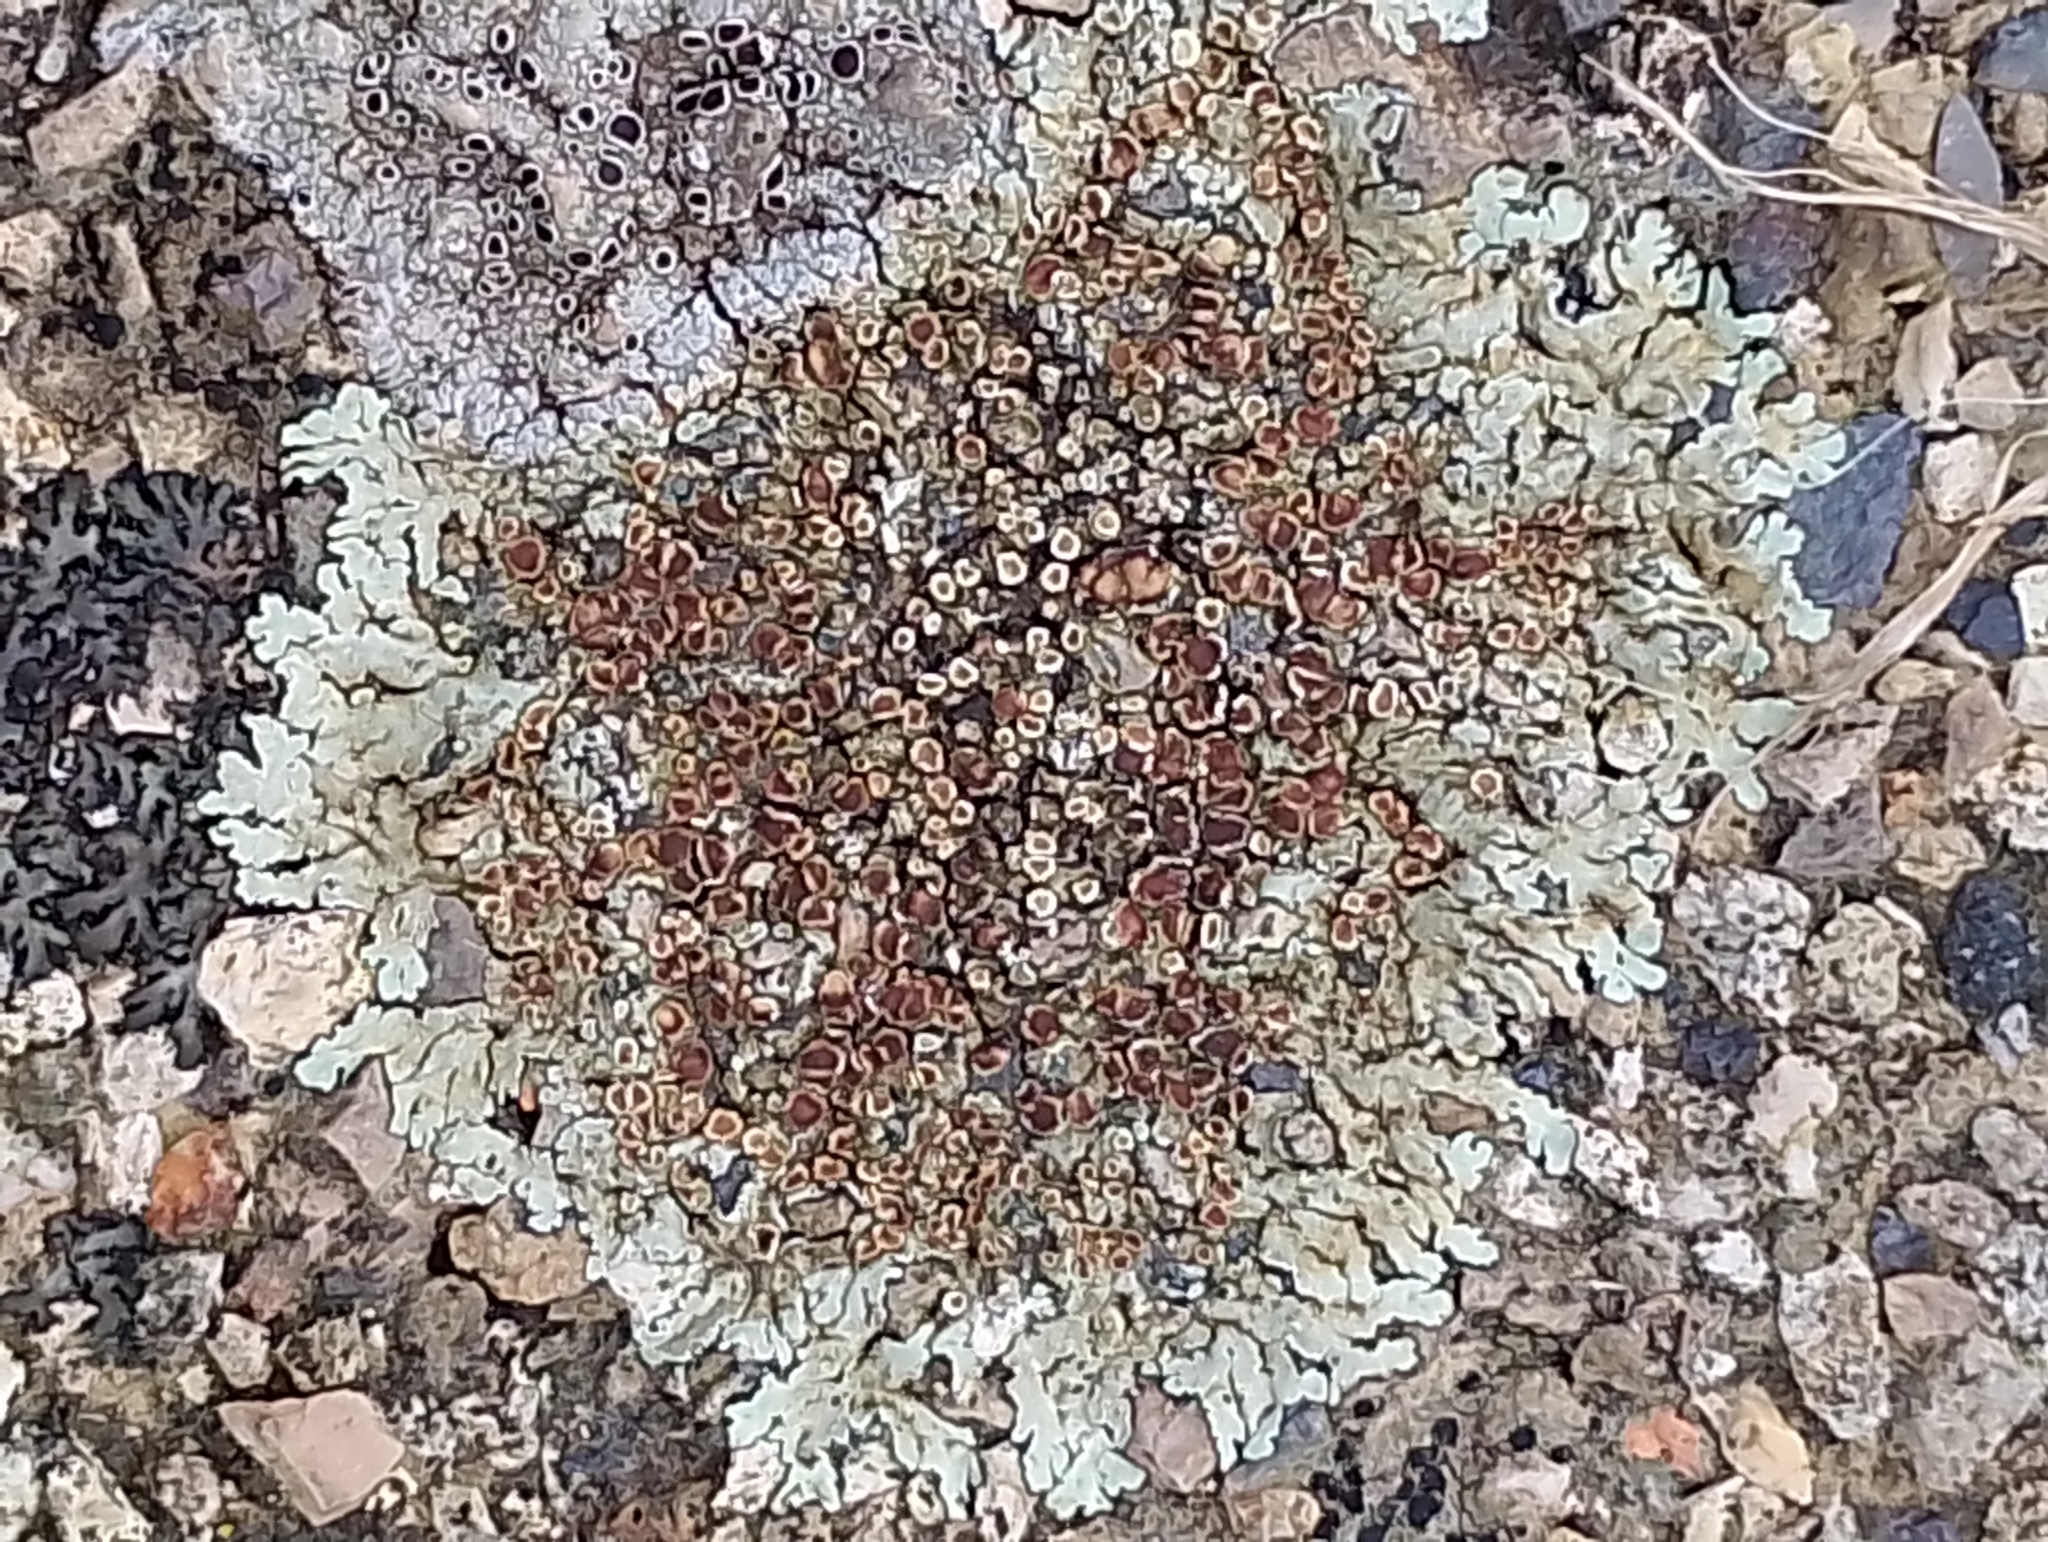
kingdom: Fungi
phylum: Ascomycota
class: Lecanoromycetes
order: Lecanorales
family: Lecanoraceae
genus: Protoparmeliopsis
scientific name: Protoparmeliopsis muralis
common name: Stonewall rim lichen
